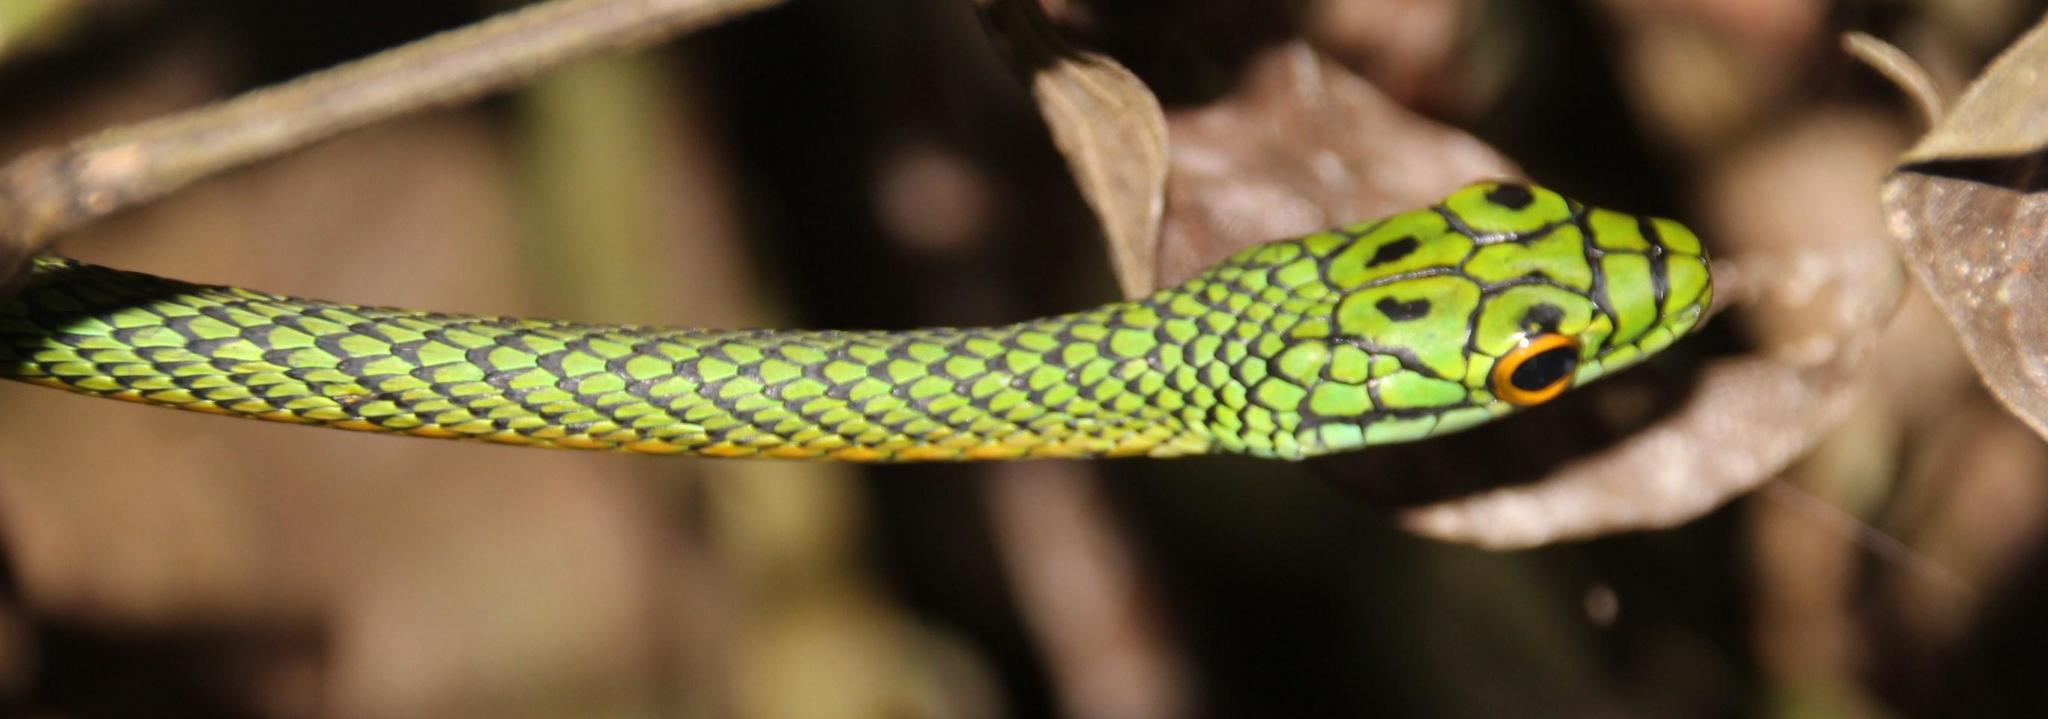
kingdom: Animalia
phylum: Chordata
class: Squamata
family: Colubridae
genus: Leptophis
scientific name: Leptophis ahaetulla
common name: Parrot snake
